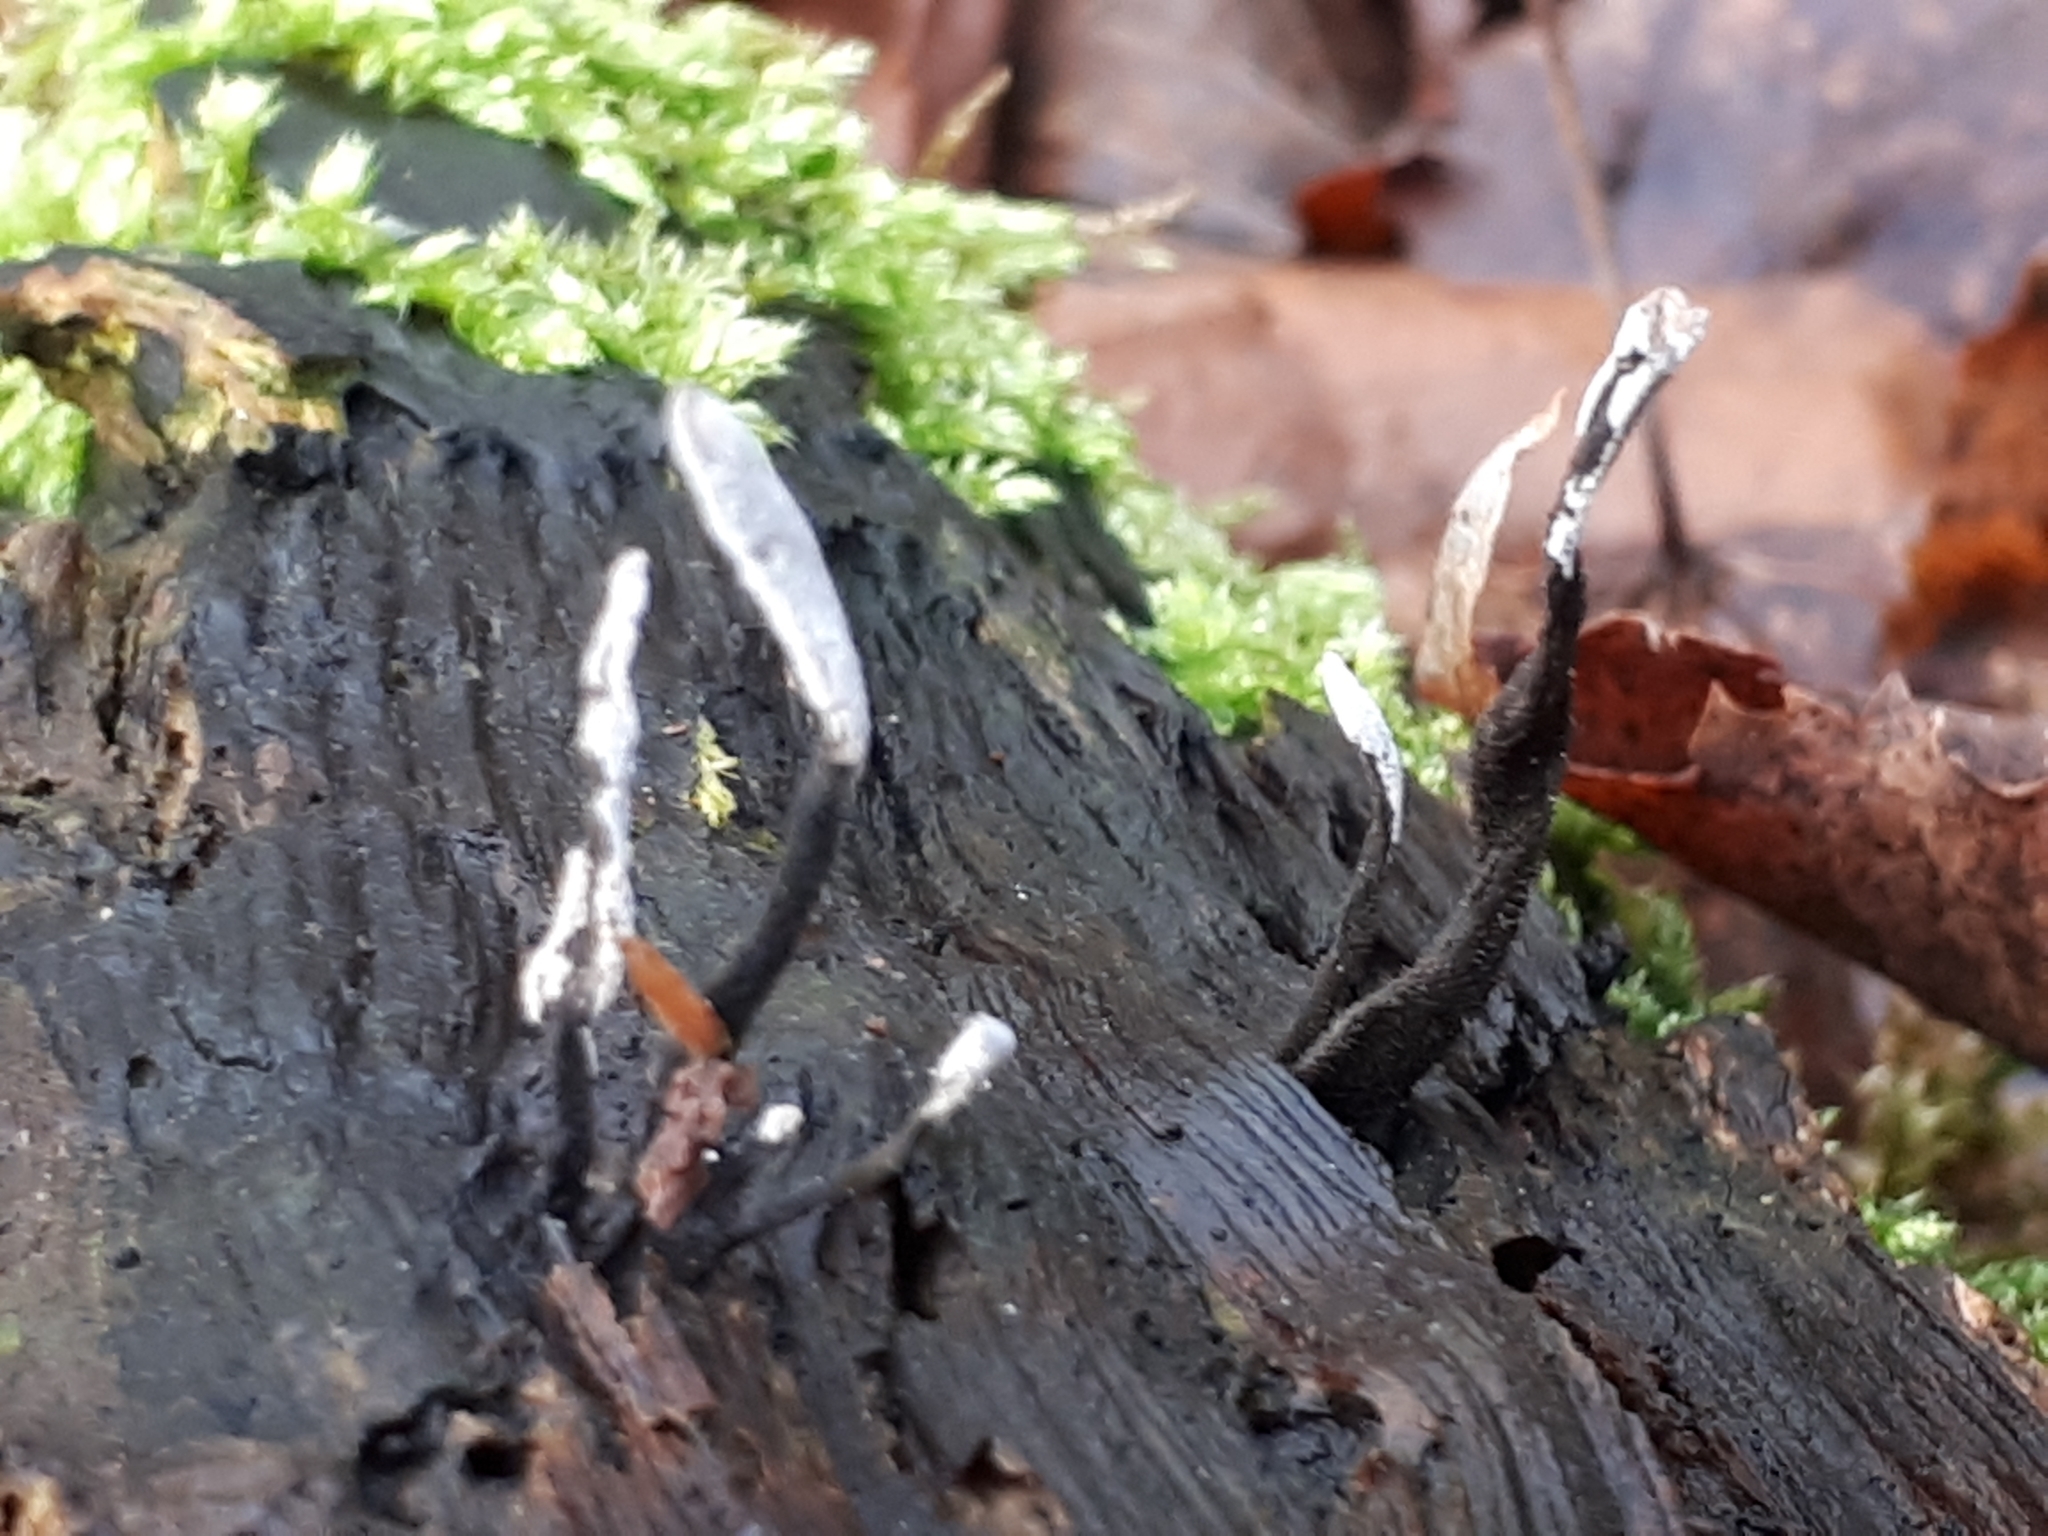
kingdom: Fungi
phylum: Ascomycota
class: Sordariomycetes
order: Xylariales
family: Xylariaceae
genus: Xylaria
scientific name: Xylaria hypoxylon
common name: Candle-snuff fungus
